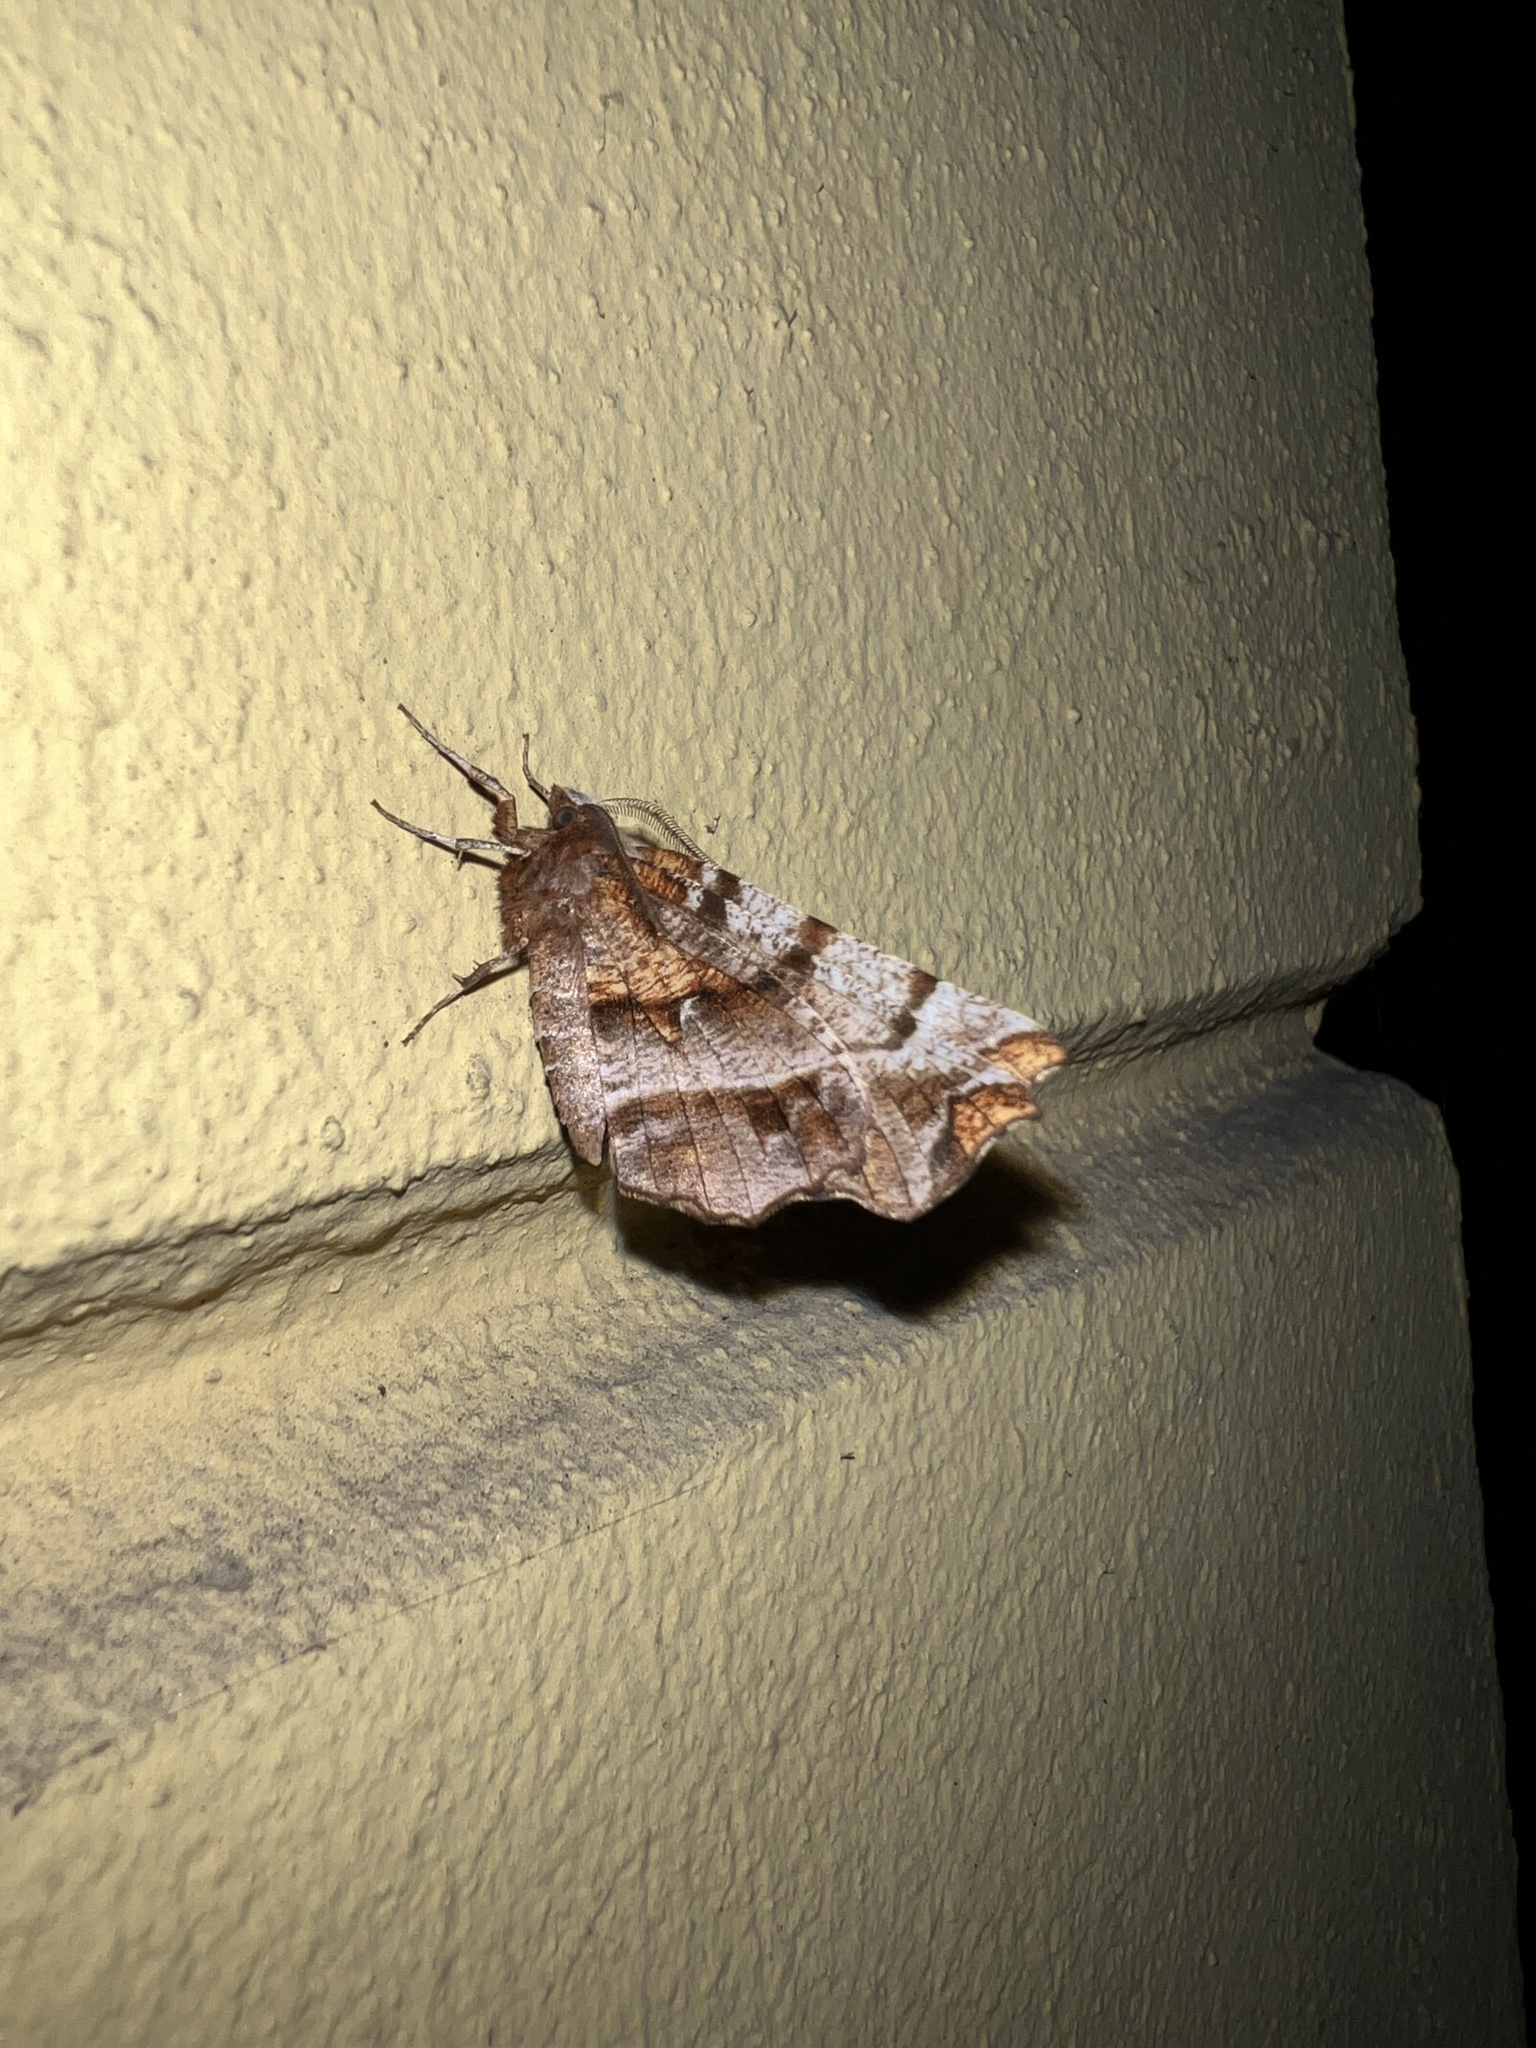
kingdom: Animalia
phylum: Arthropoda
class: Insecta
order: Lepidoptera
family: Geometridae
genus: Selenia
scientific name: Selenia dentaria
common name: Early thorn
